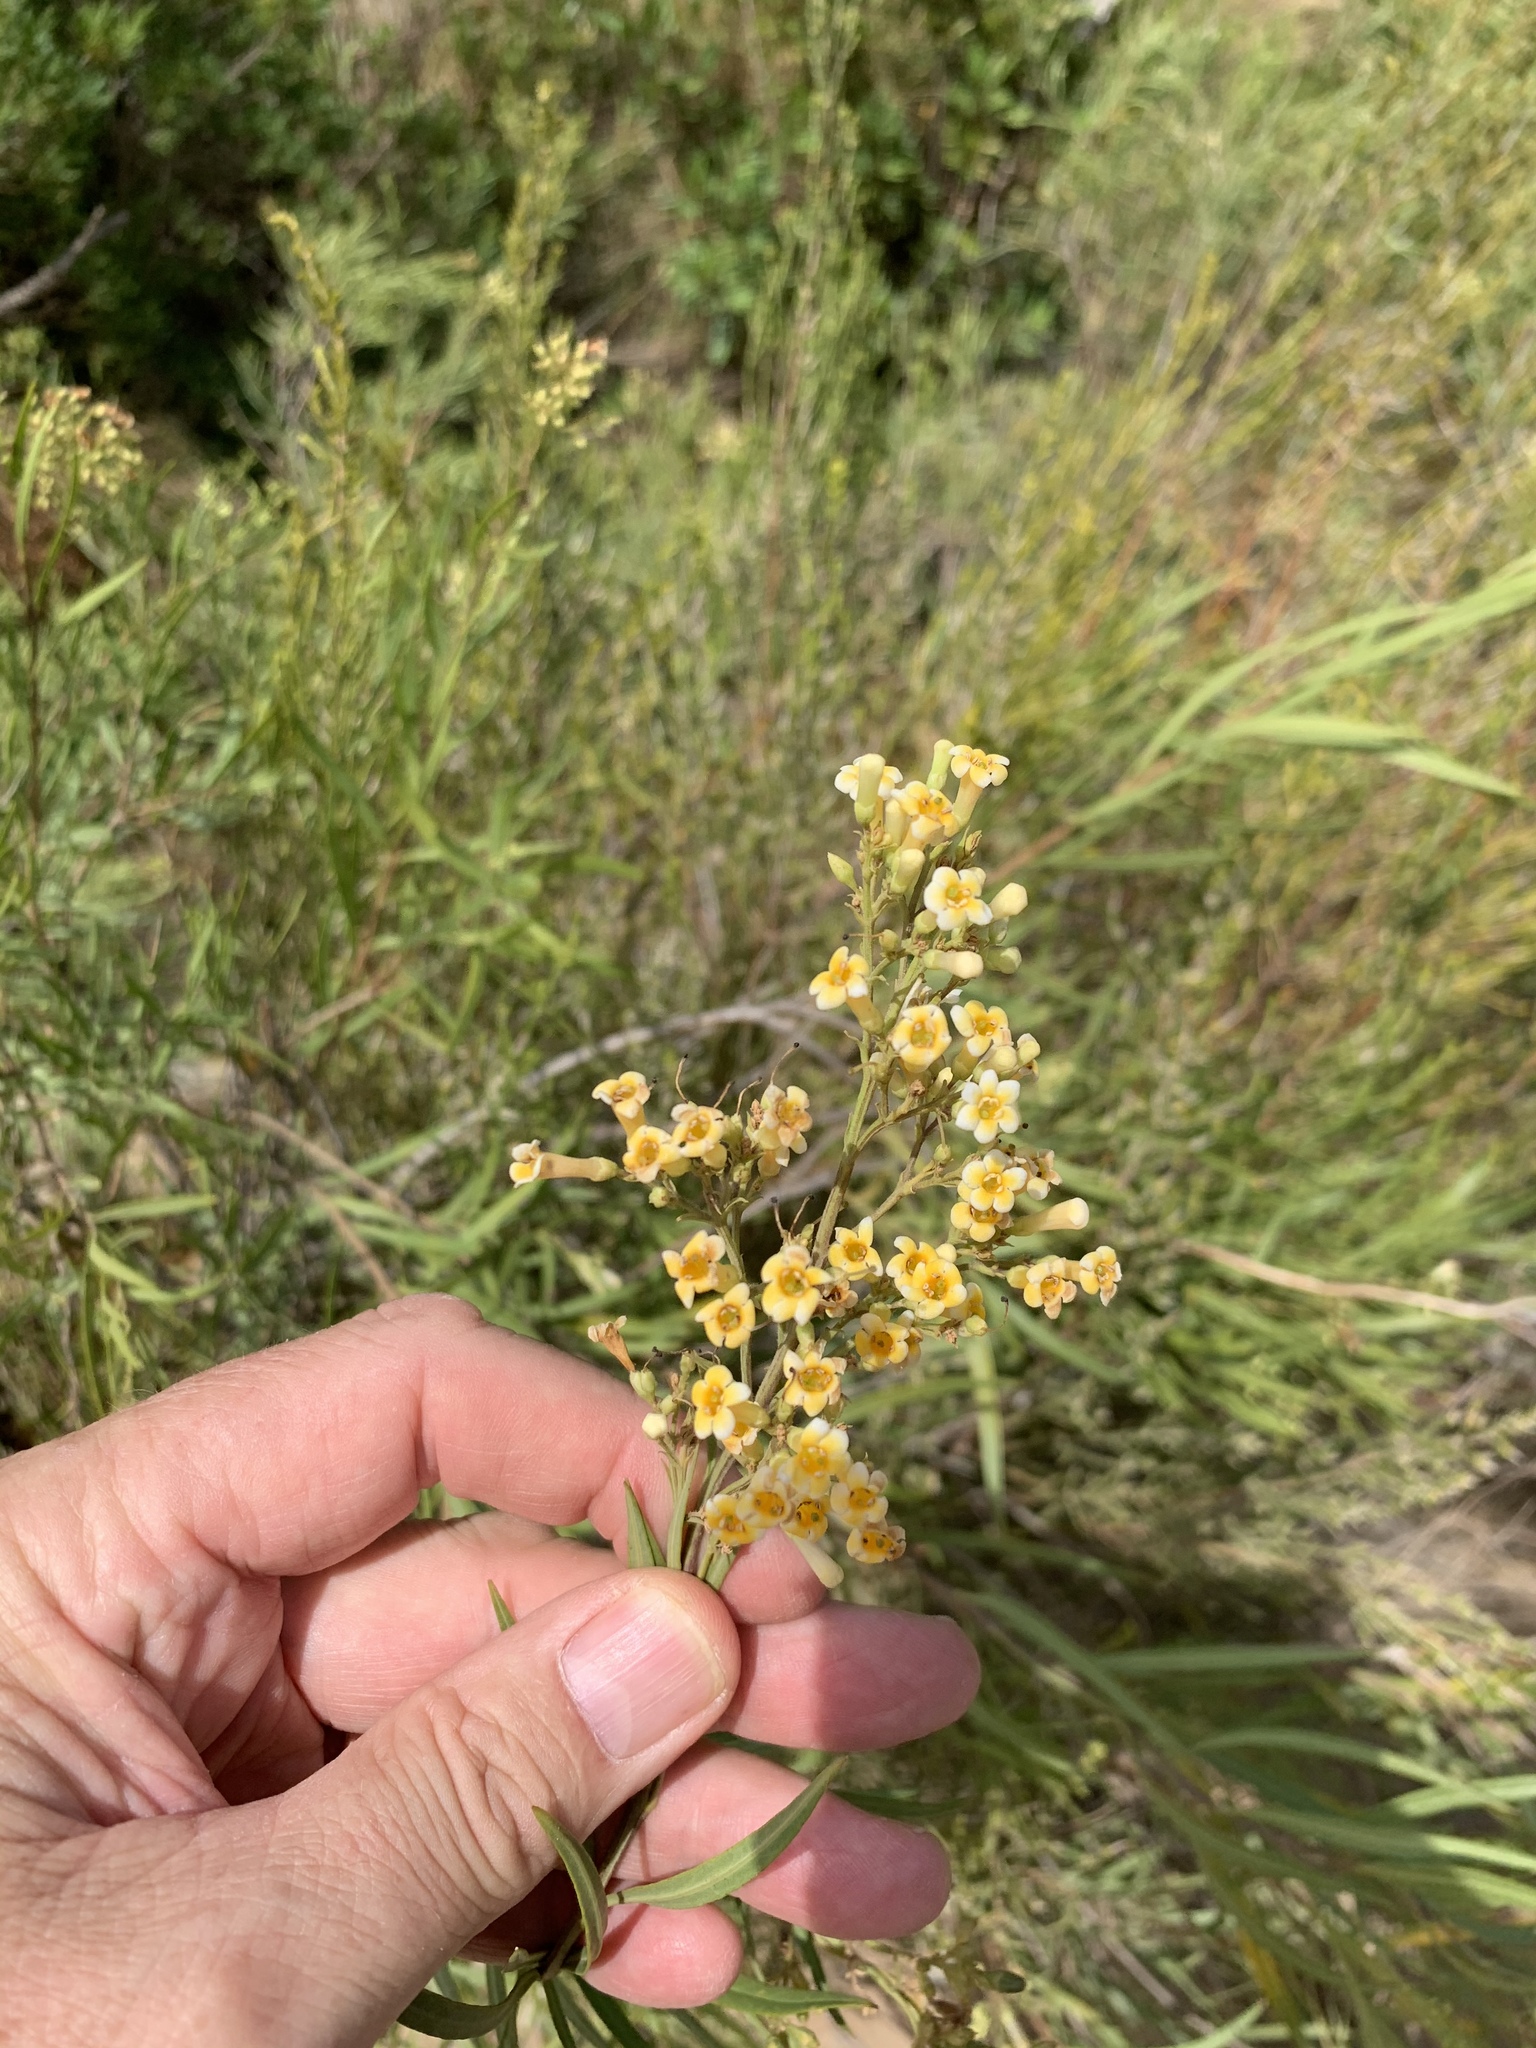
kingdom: Plantae
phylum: Tracheophyta
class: Magnoliopsida
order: Lamiales
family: Scrophulariaceae
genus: Freylinia
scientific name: Freylinia lanceolata
